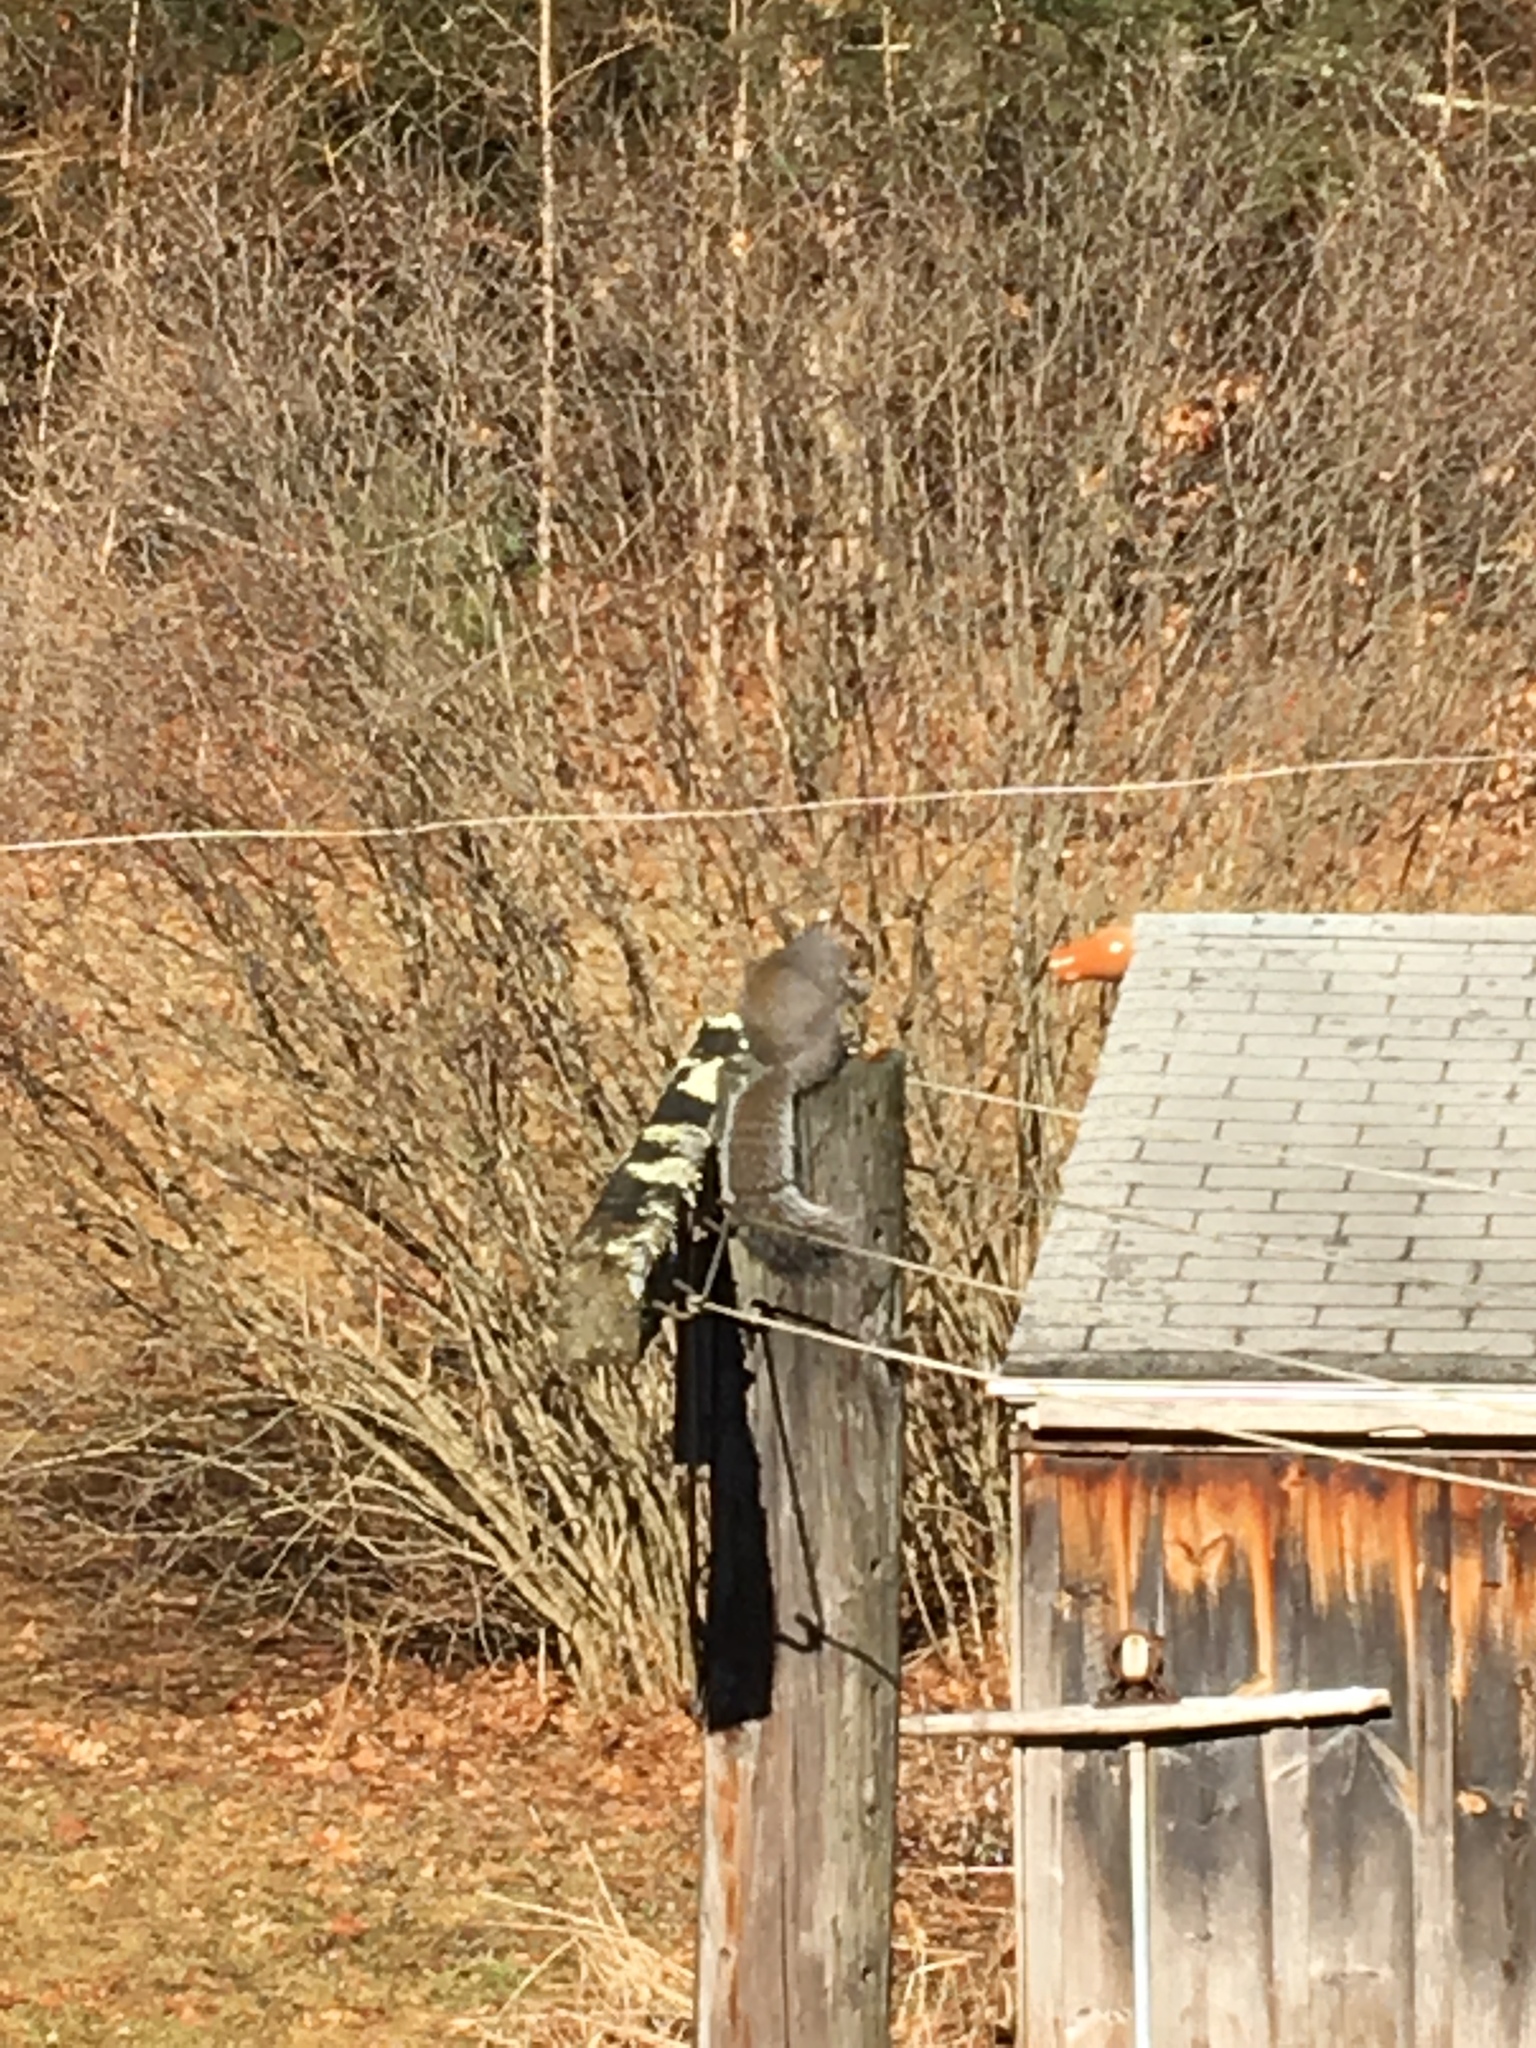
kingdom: Animalia
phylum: Chordata
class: Mammalia
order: Rodentia
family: Sciuridae
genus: Sciurus
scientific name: Sciurus carolinensis
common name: Eastern gray squirrel
